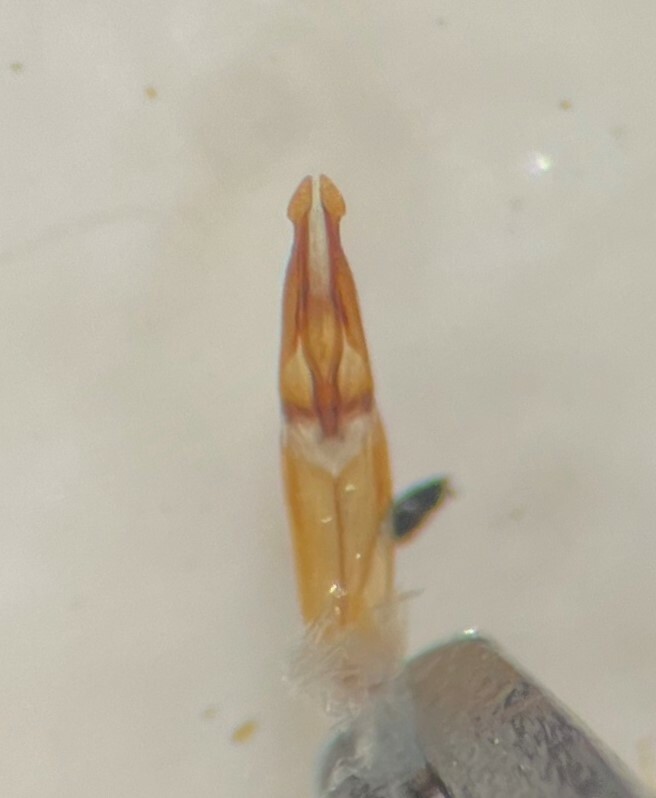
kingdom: Animalia
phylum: Arthropoda
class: Insecta
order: Coleoptera
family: Hydrochidae
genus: Hydrochus
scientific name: Hydrochus squamifer
